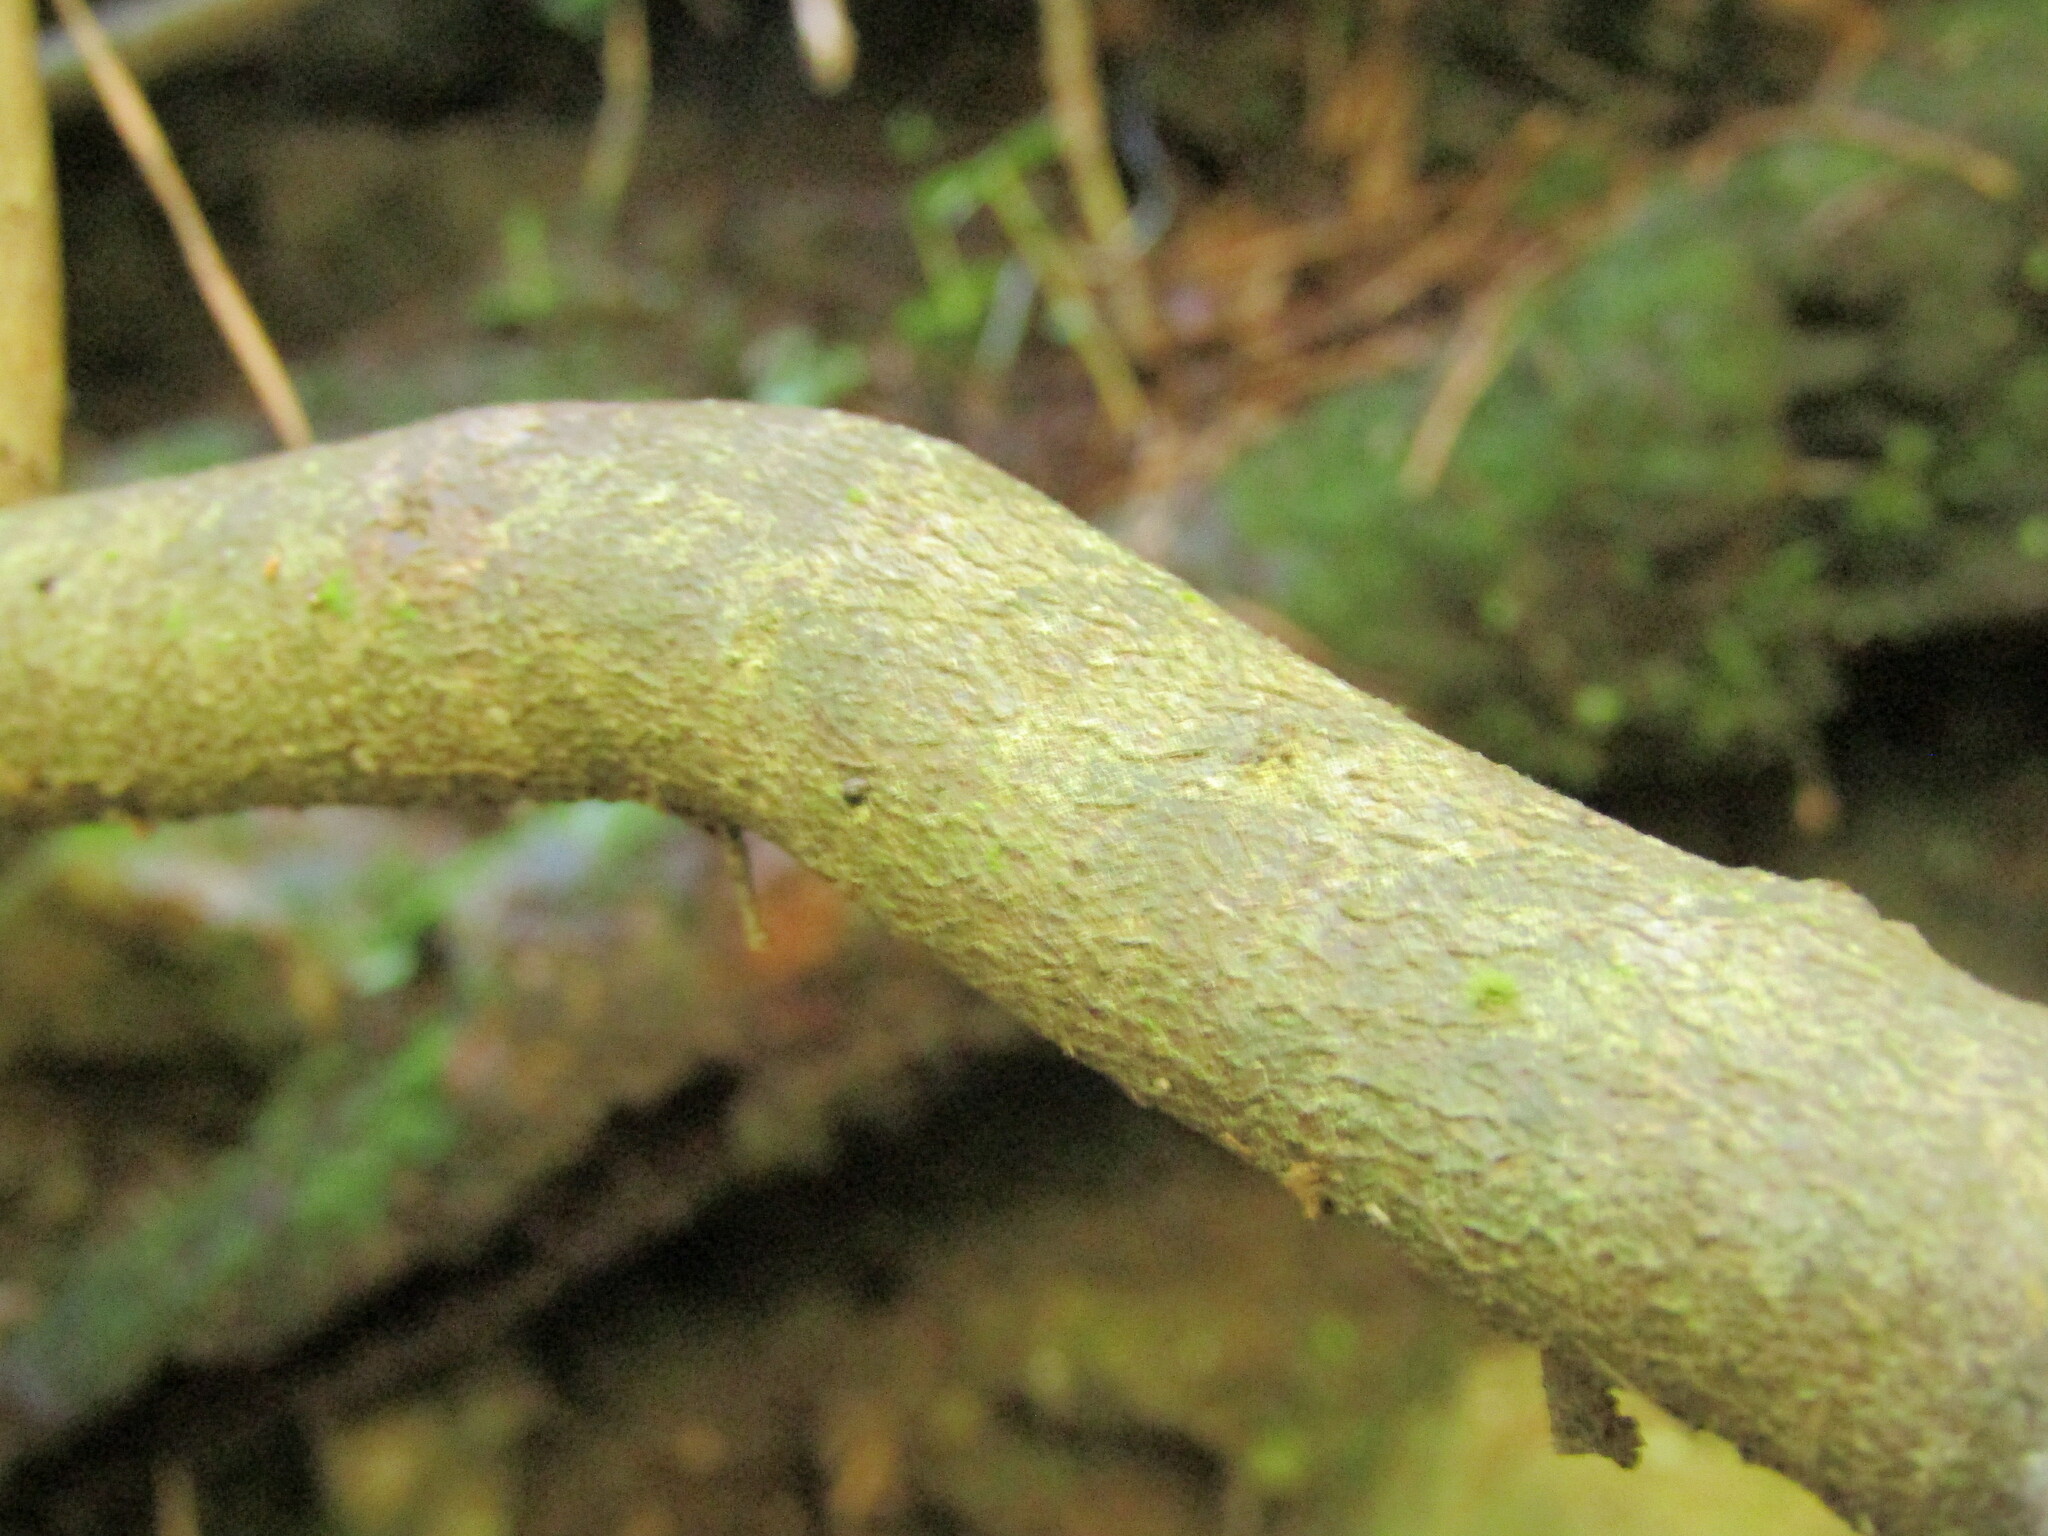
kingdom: Plantae
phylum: Tracheophyta
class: Magnoliopsida
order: Rosales
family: Rhamnaceae
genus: Condalia
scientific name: Condalia maytenoides
